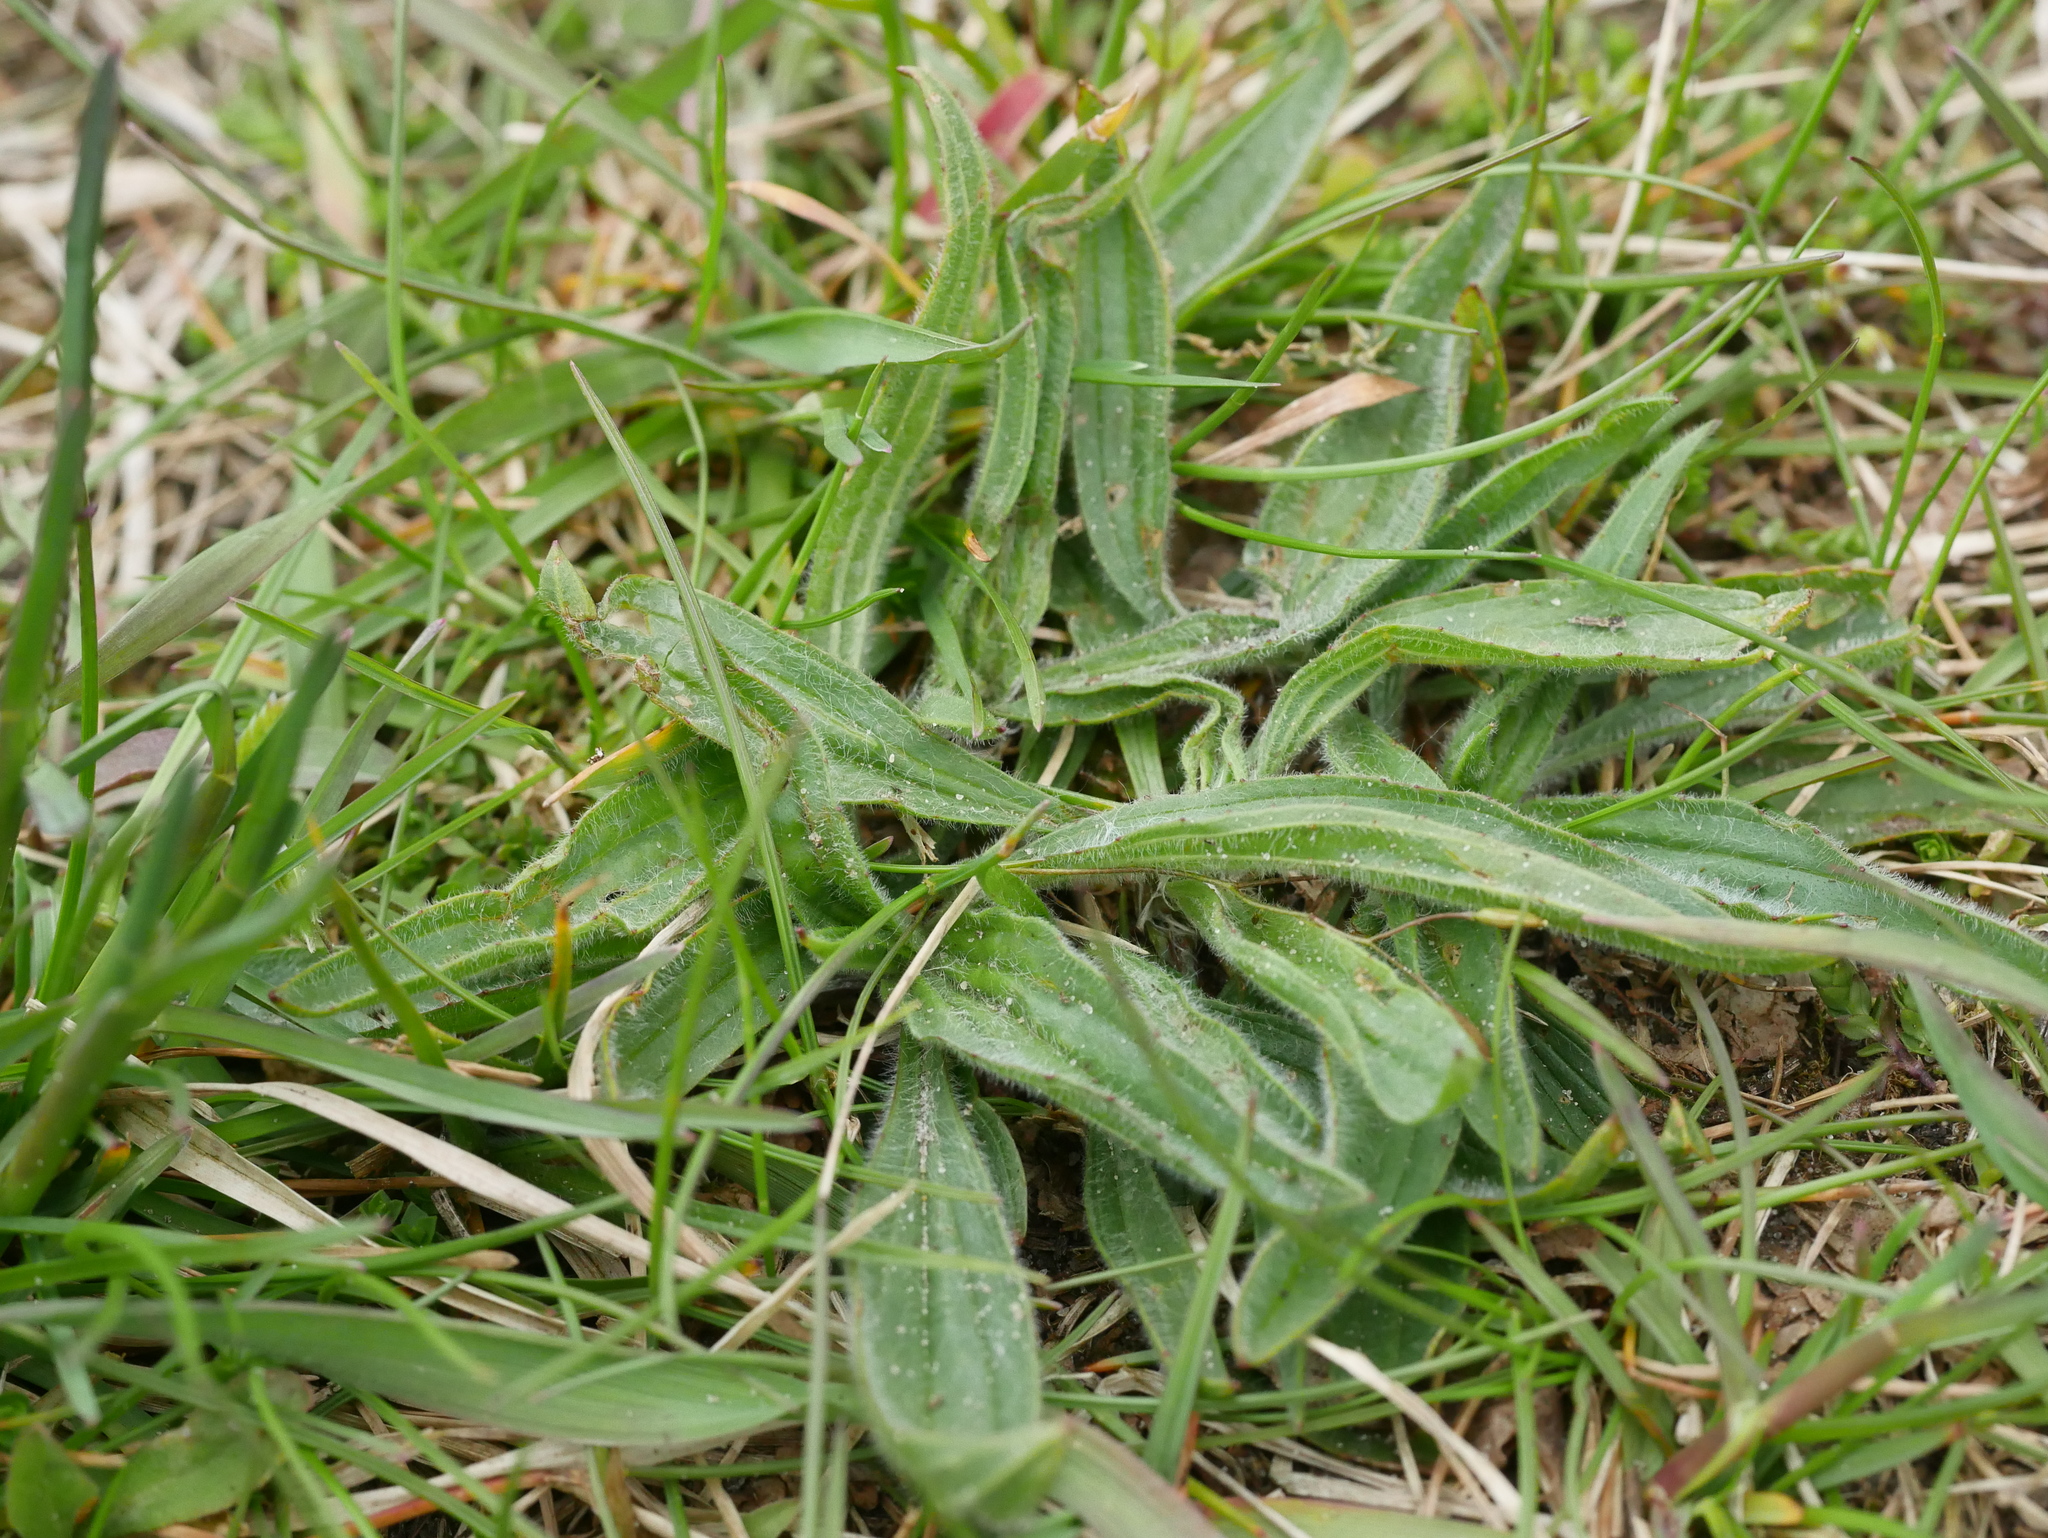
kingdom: Plantae
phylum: Tracheophyta
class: Magnoliopsida
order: Lamiales
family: Plantaginaceae
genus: Plantago
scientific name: Plantago lanceolata
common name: Ribwort plantain
